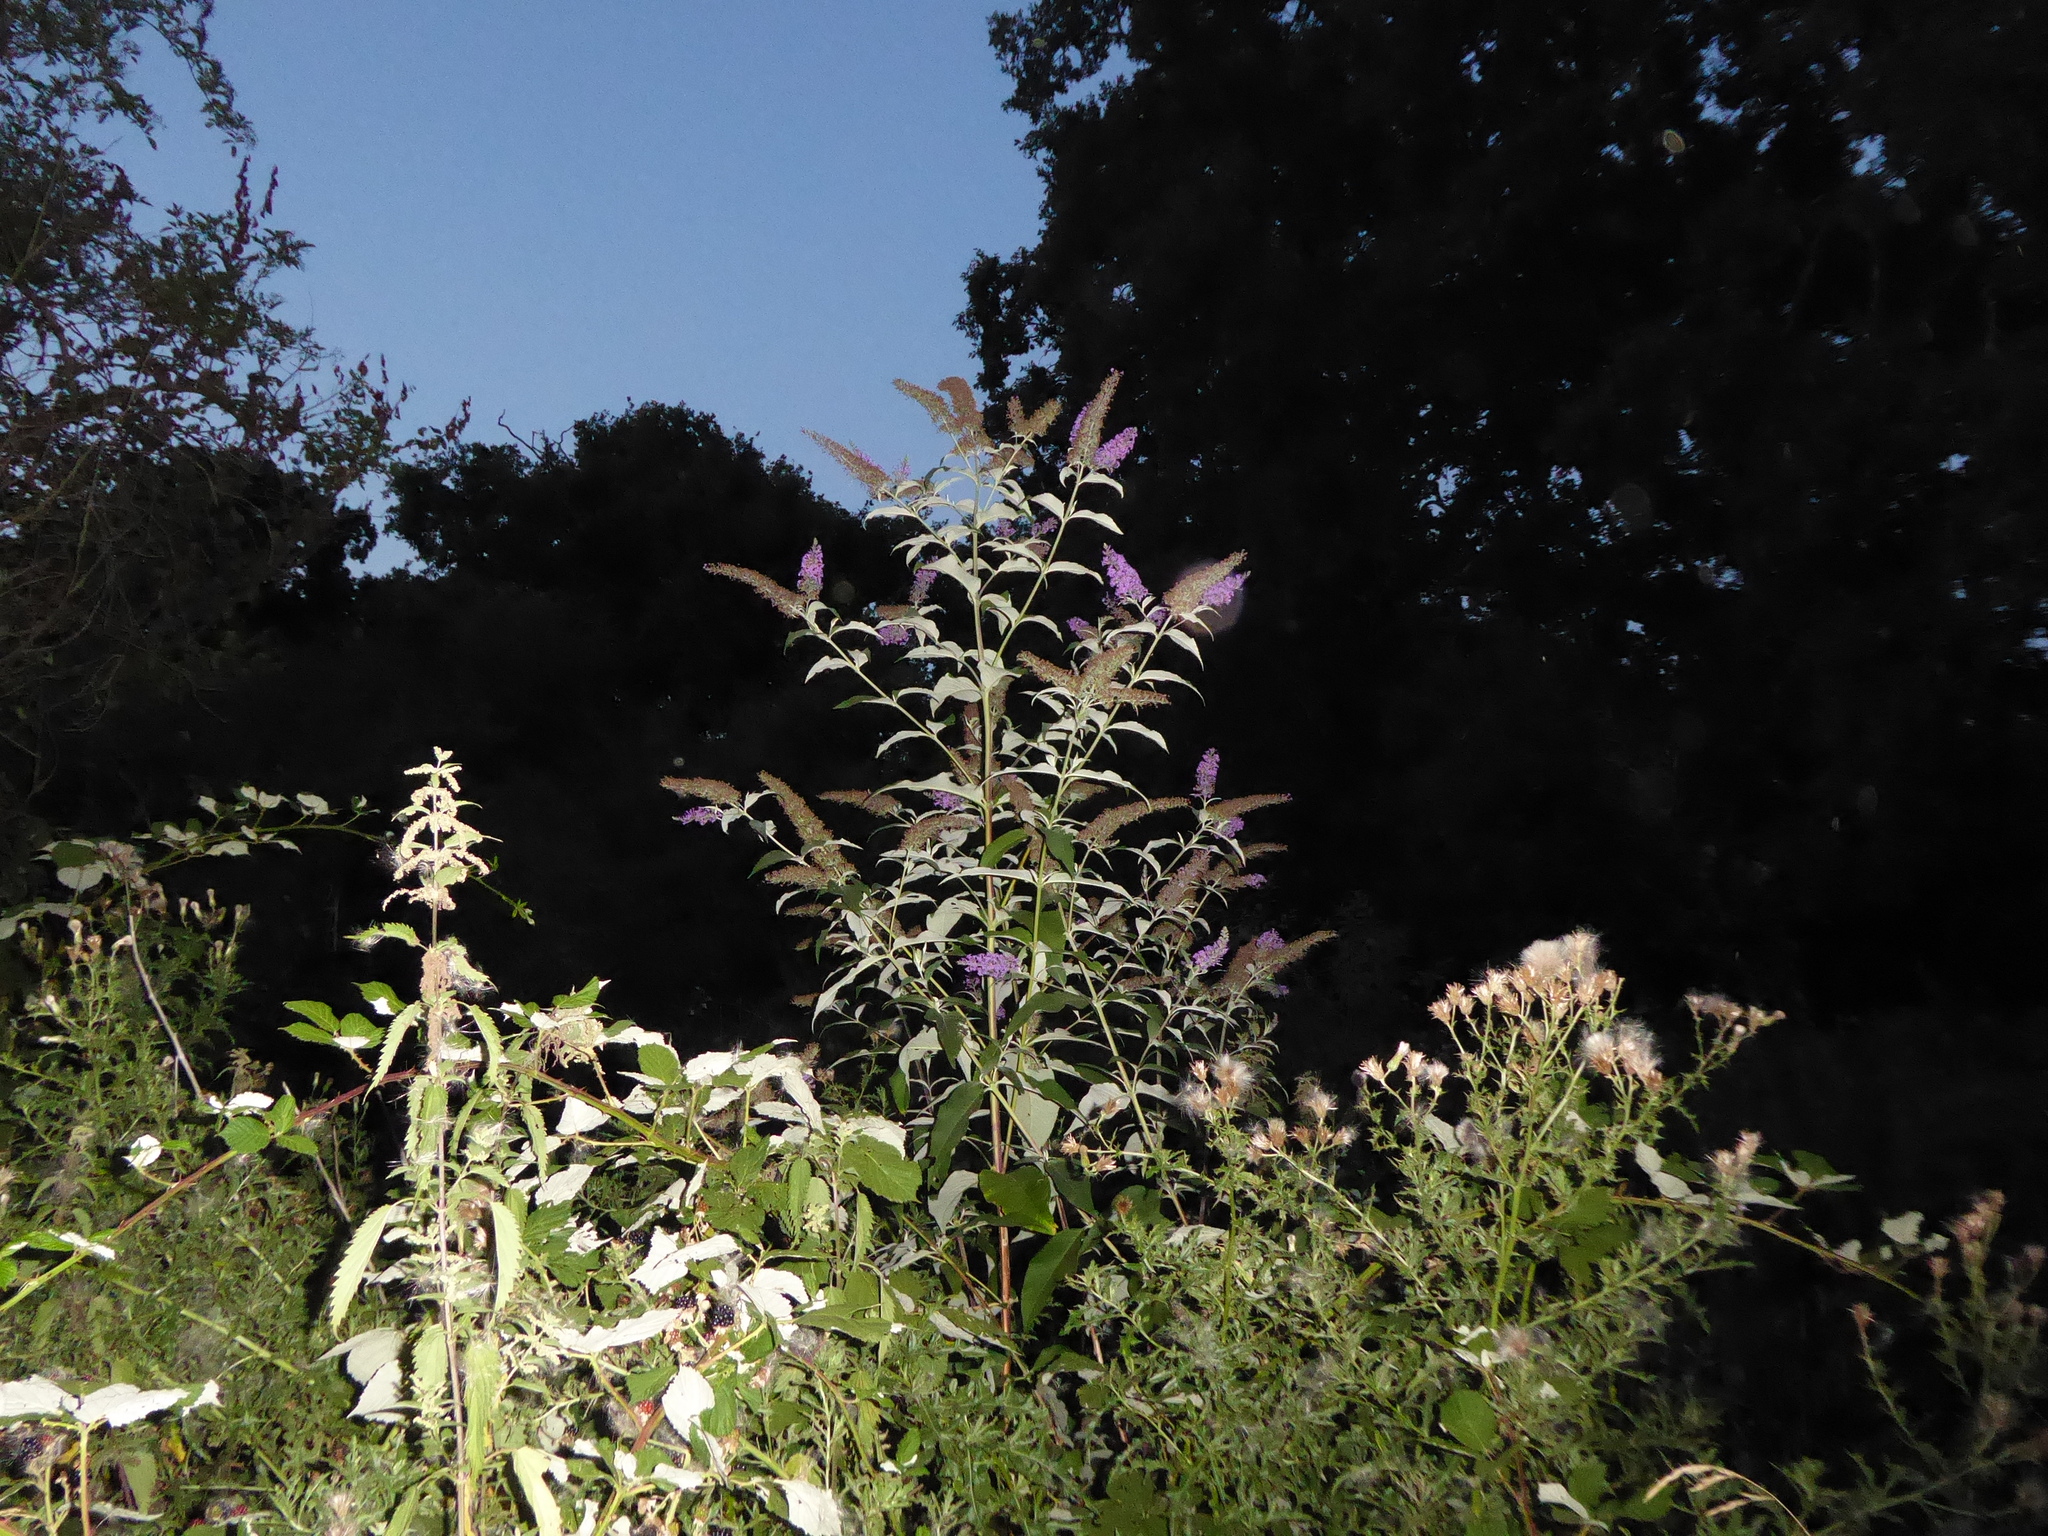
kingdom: Plantae
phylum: Tracheophyta
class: Magnoliopsida
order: Lamiales
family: Scrophulariaceae
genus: Buddleja
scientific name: Buddleja davidii
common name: Butterfly-bush
